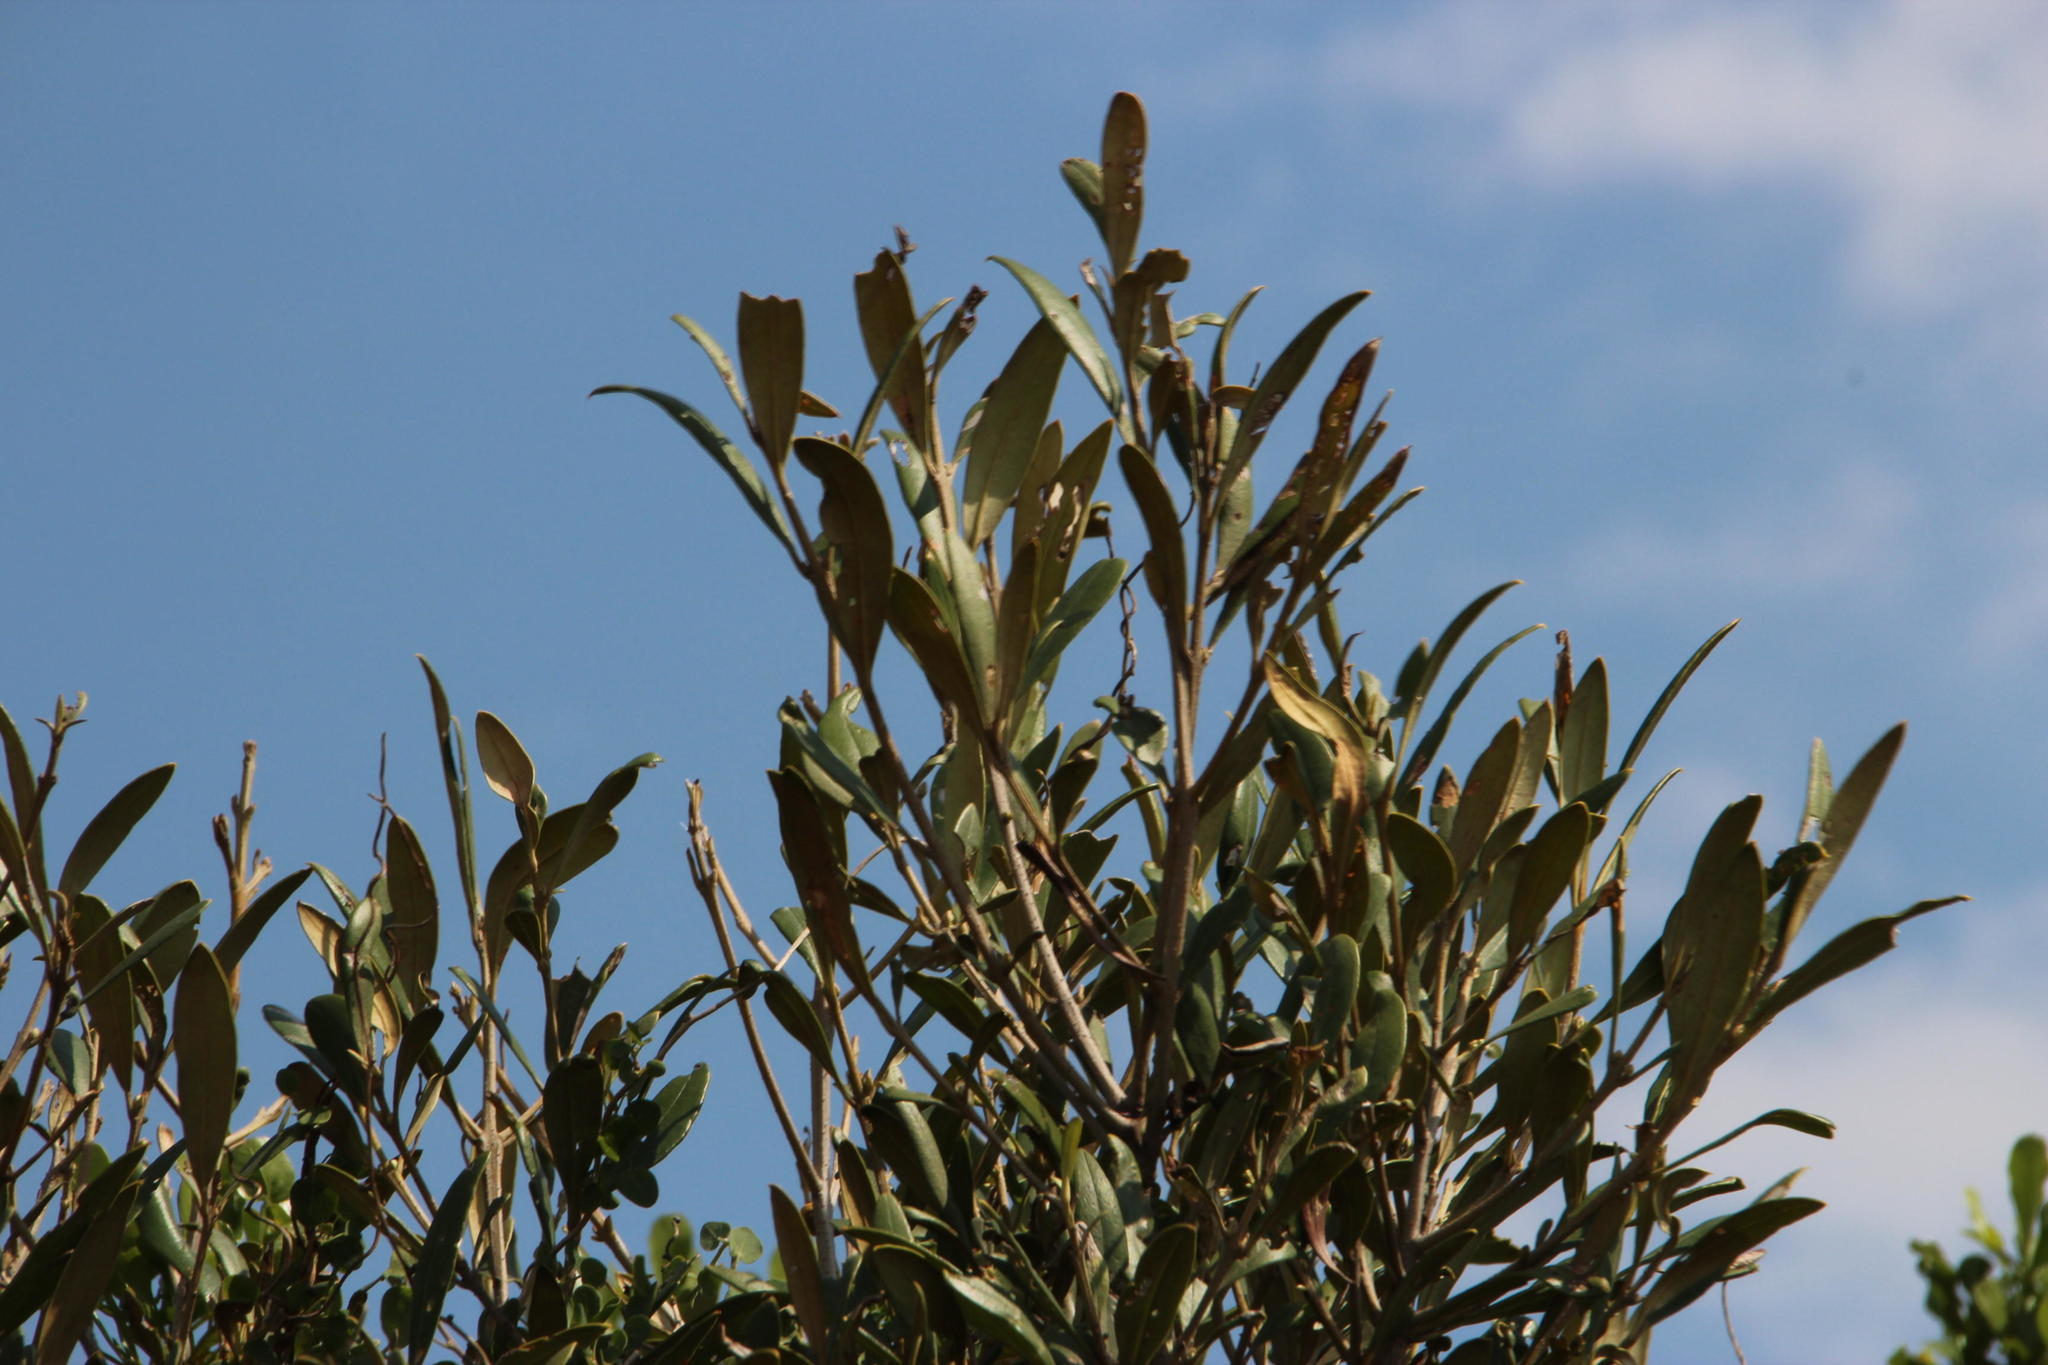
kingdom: Plantae
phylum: Tracheophyta
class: Magnoliopsida
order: Lamiales
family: Oleaceae
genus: Olea
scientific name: Olea europaea
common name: Olive
